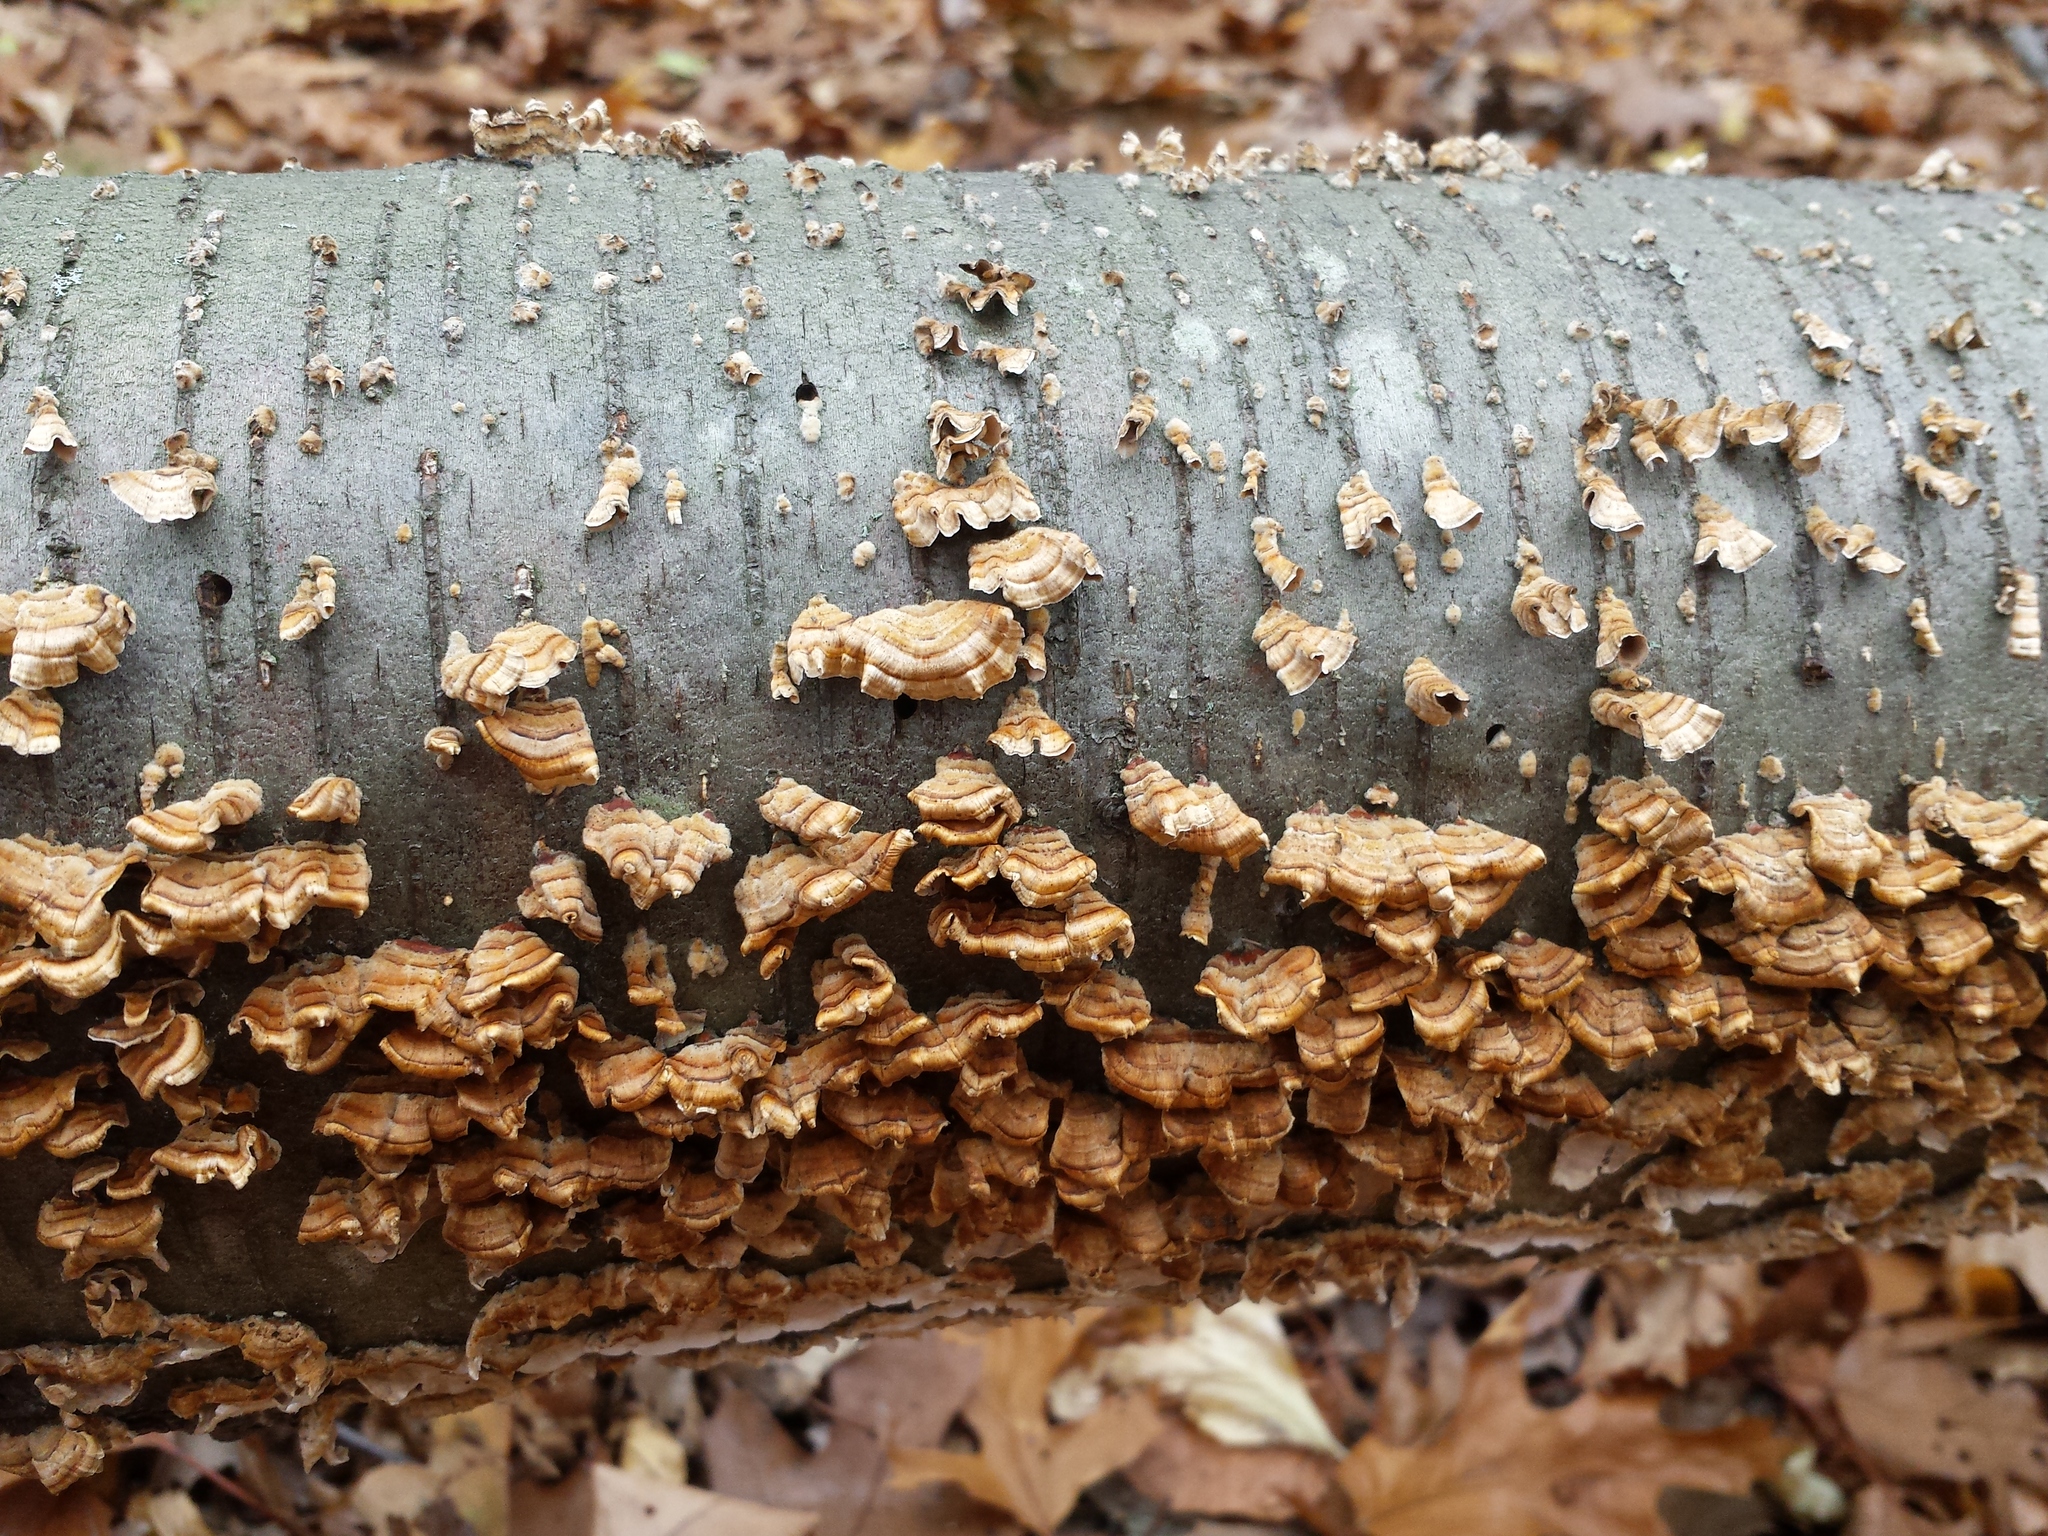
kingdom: Fungi
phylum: Basidiomycota
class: Agaricomycetes
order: Russulales
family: Stereaceae
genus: Stereum
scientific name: Stereum complicatum
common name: Crowded parchment
